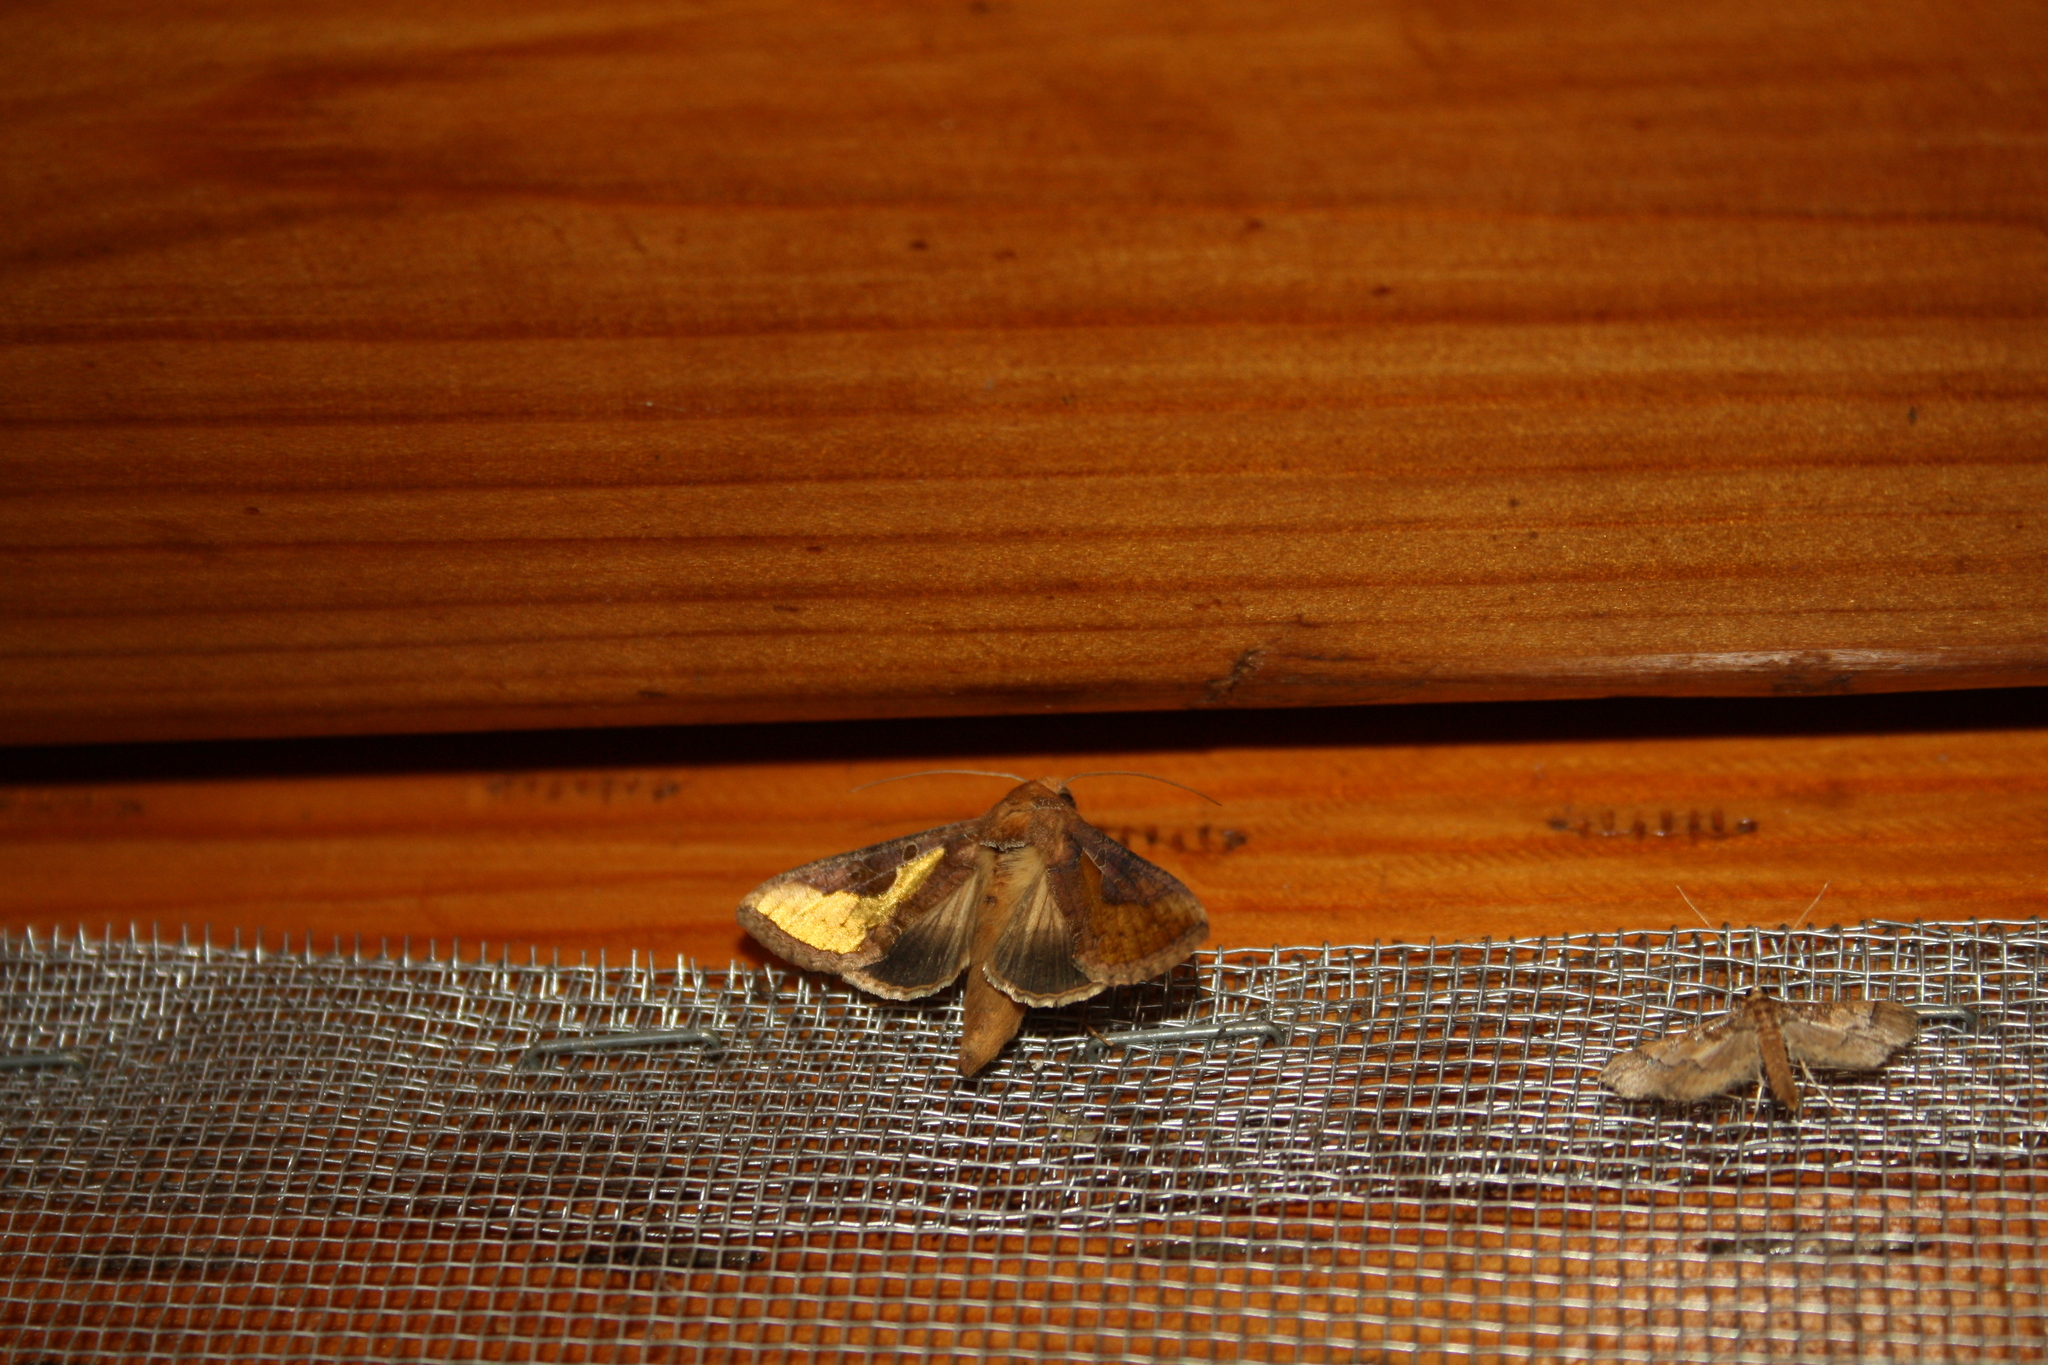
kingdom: Animalia
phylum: Arthropoda
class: Insecta
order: Lepidoptera
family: Noctuidae
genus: Thysanoplusia
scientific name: Thysanoplusia orichalcea
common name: Slender burnished brass, golden plusia
